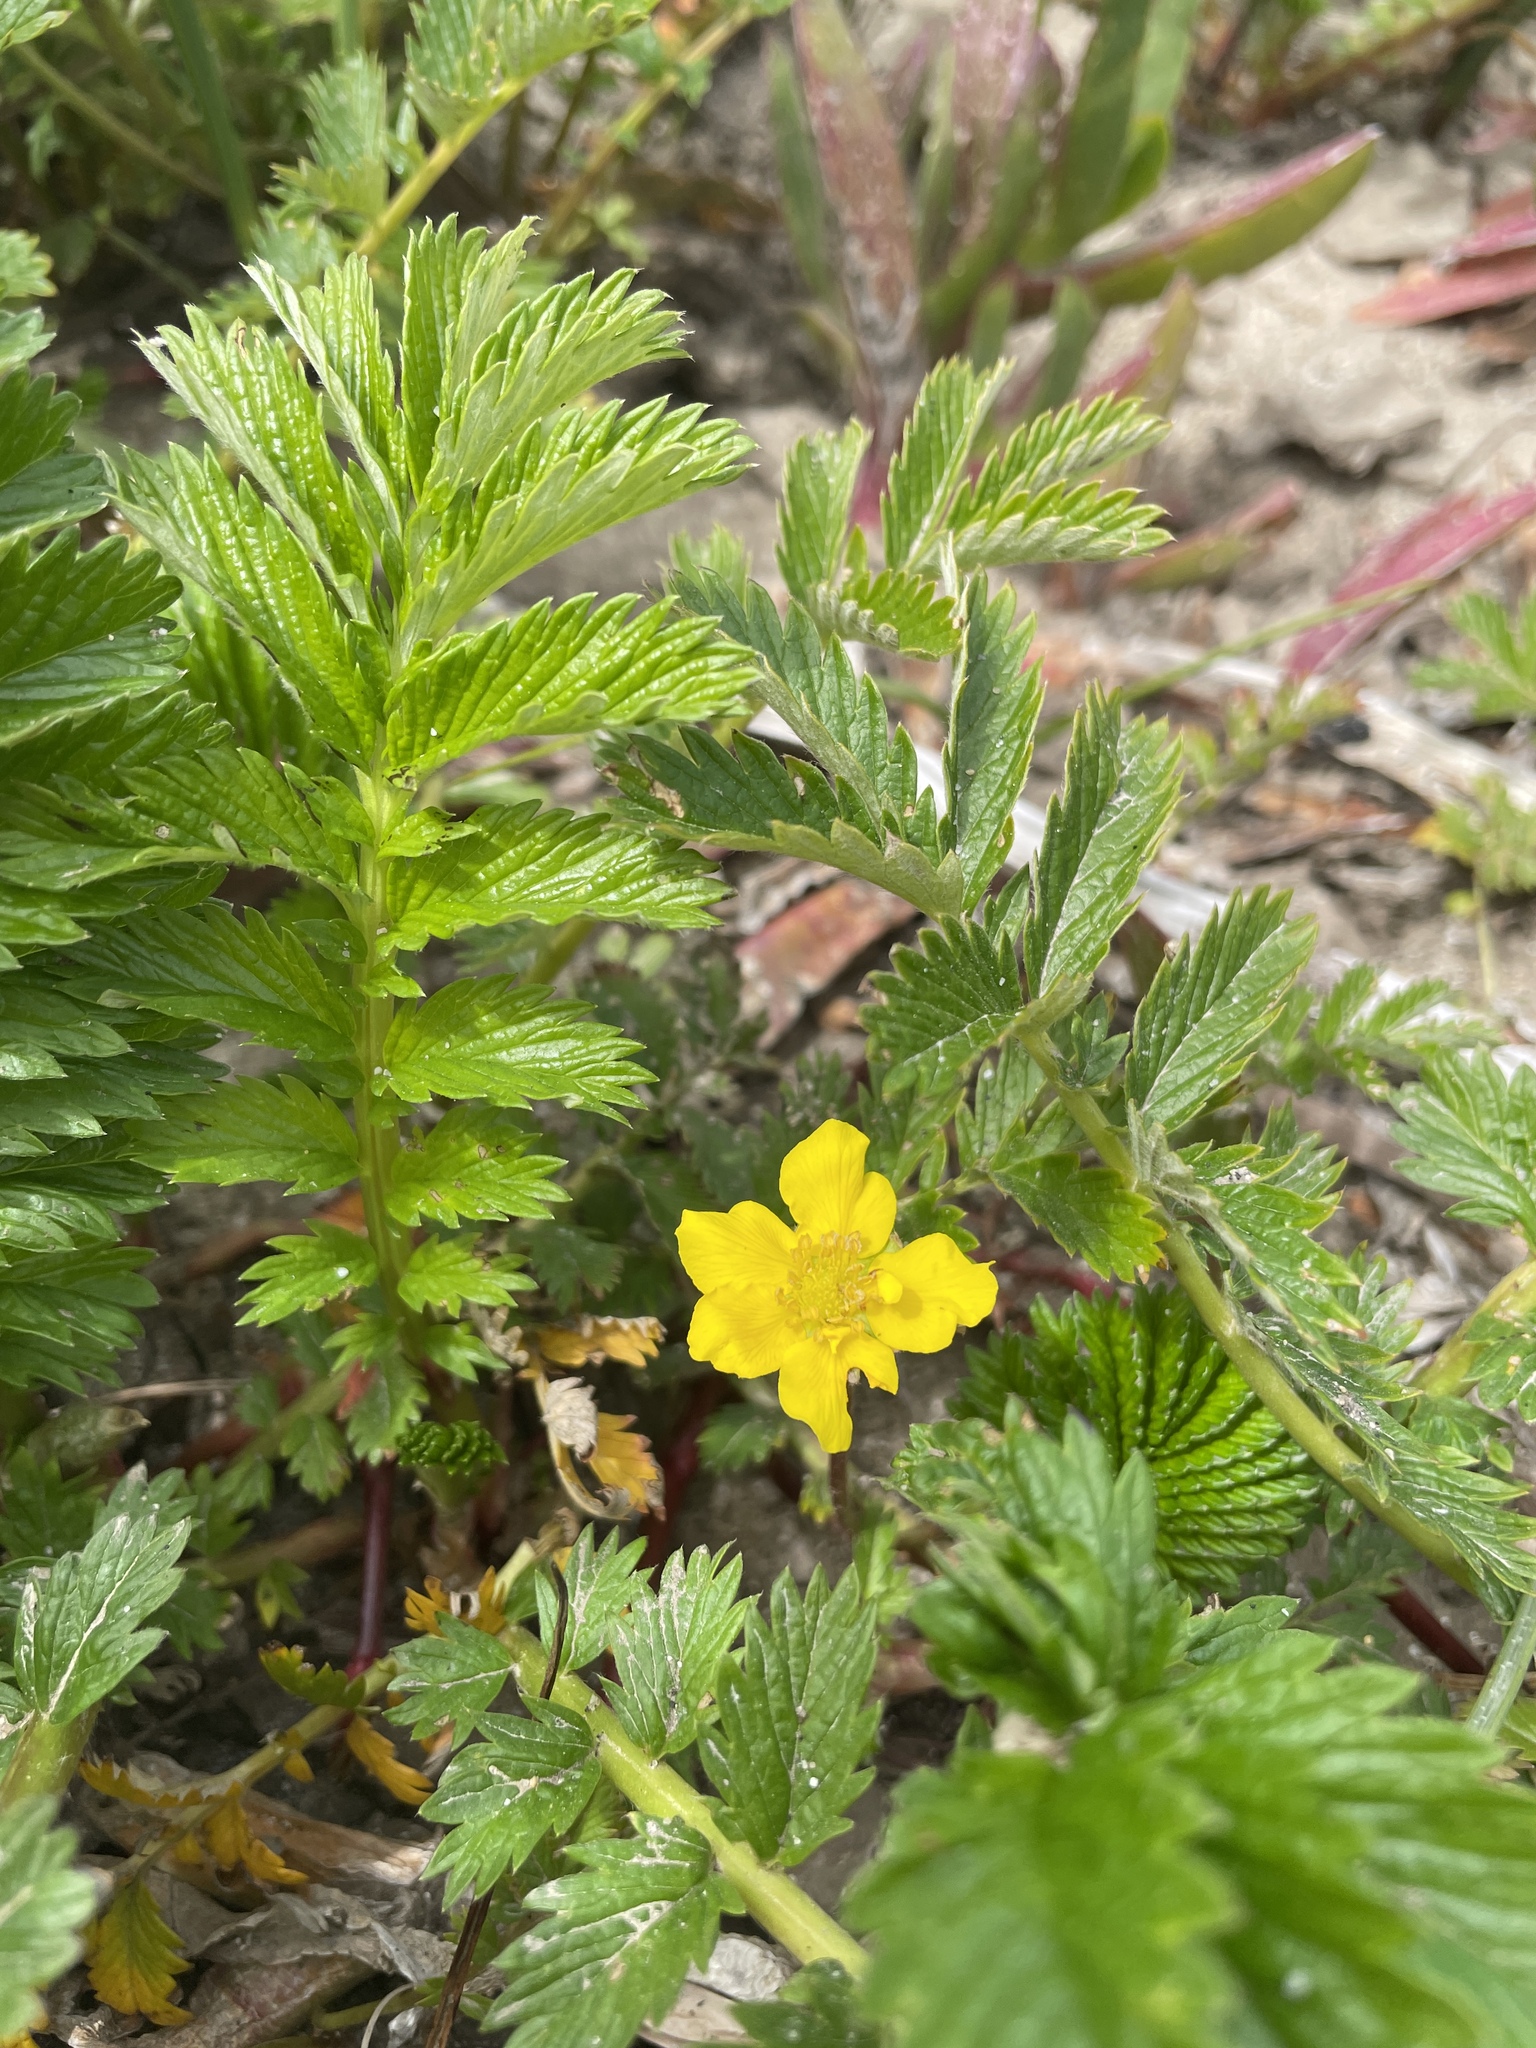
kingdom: Plantae
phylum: Tracheophyta
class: Magnoliopsida
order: Rosales
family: Rosaceae
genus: Argentina
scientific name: Argentina anserina
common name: Common silverweed
